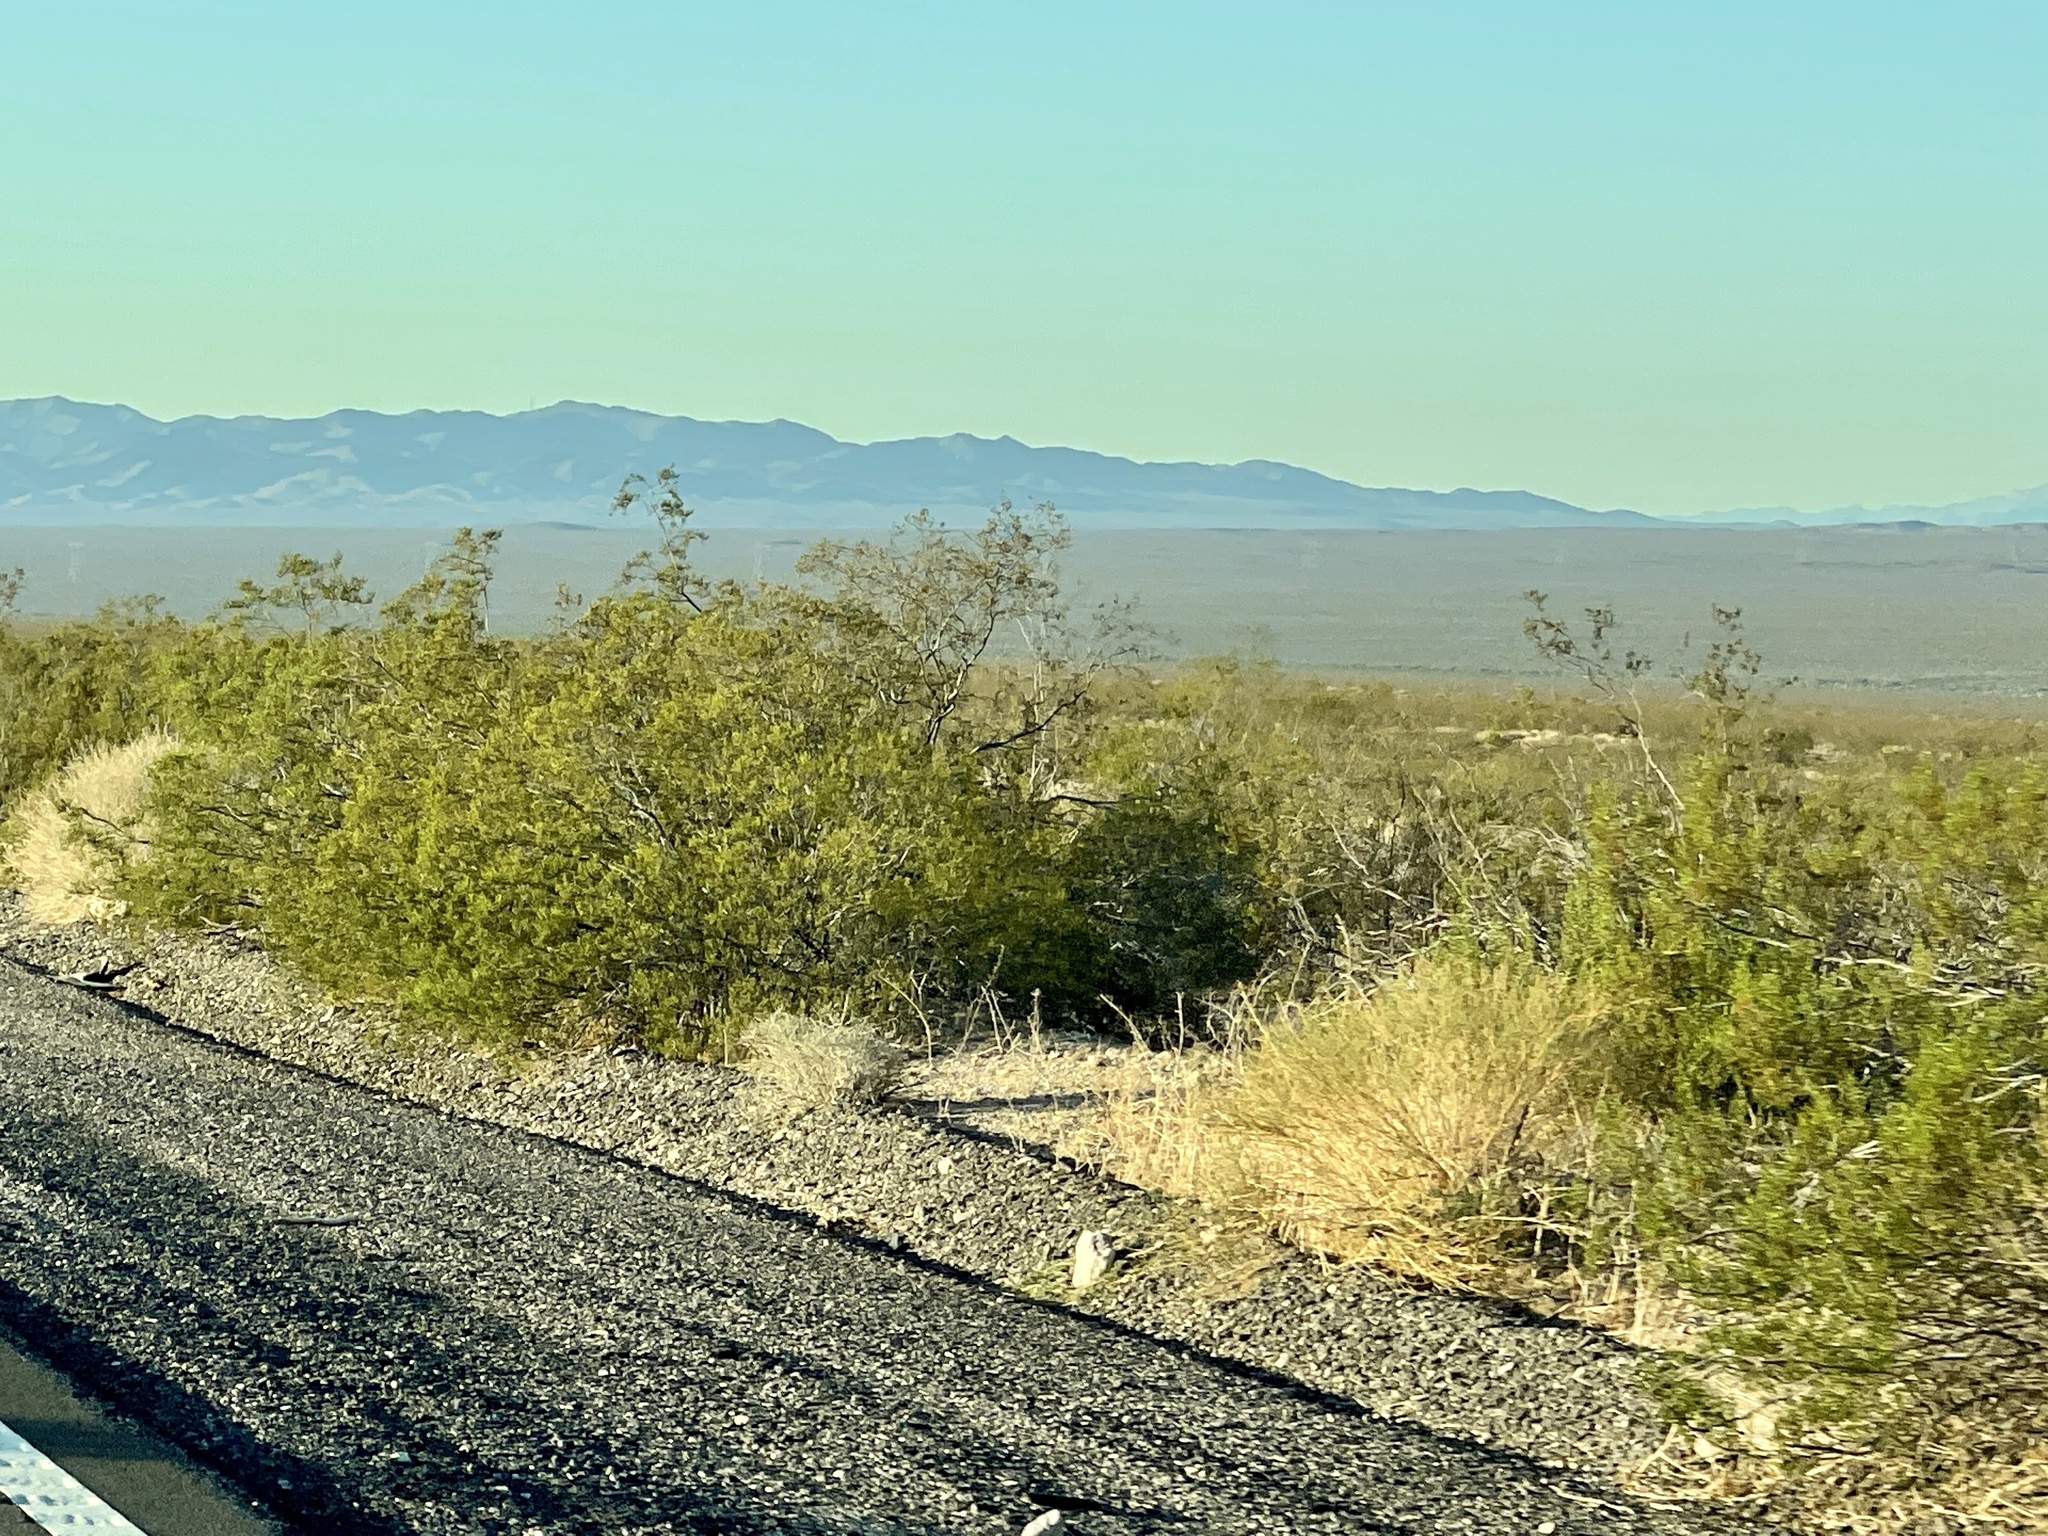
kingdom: Plantae
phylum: Tracheophyta
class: Magnoliopsida
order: Zygophyllales
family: Zygophyllaceae
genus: Larrea
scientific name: Larrea tridentata
